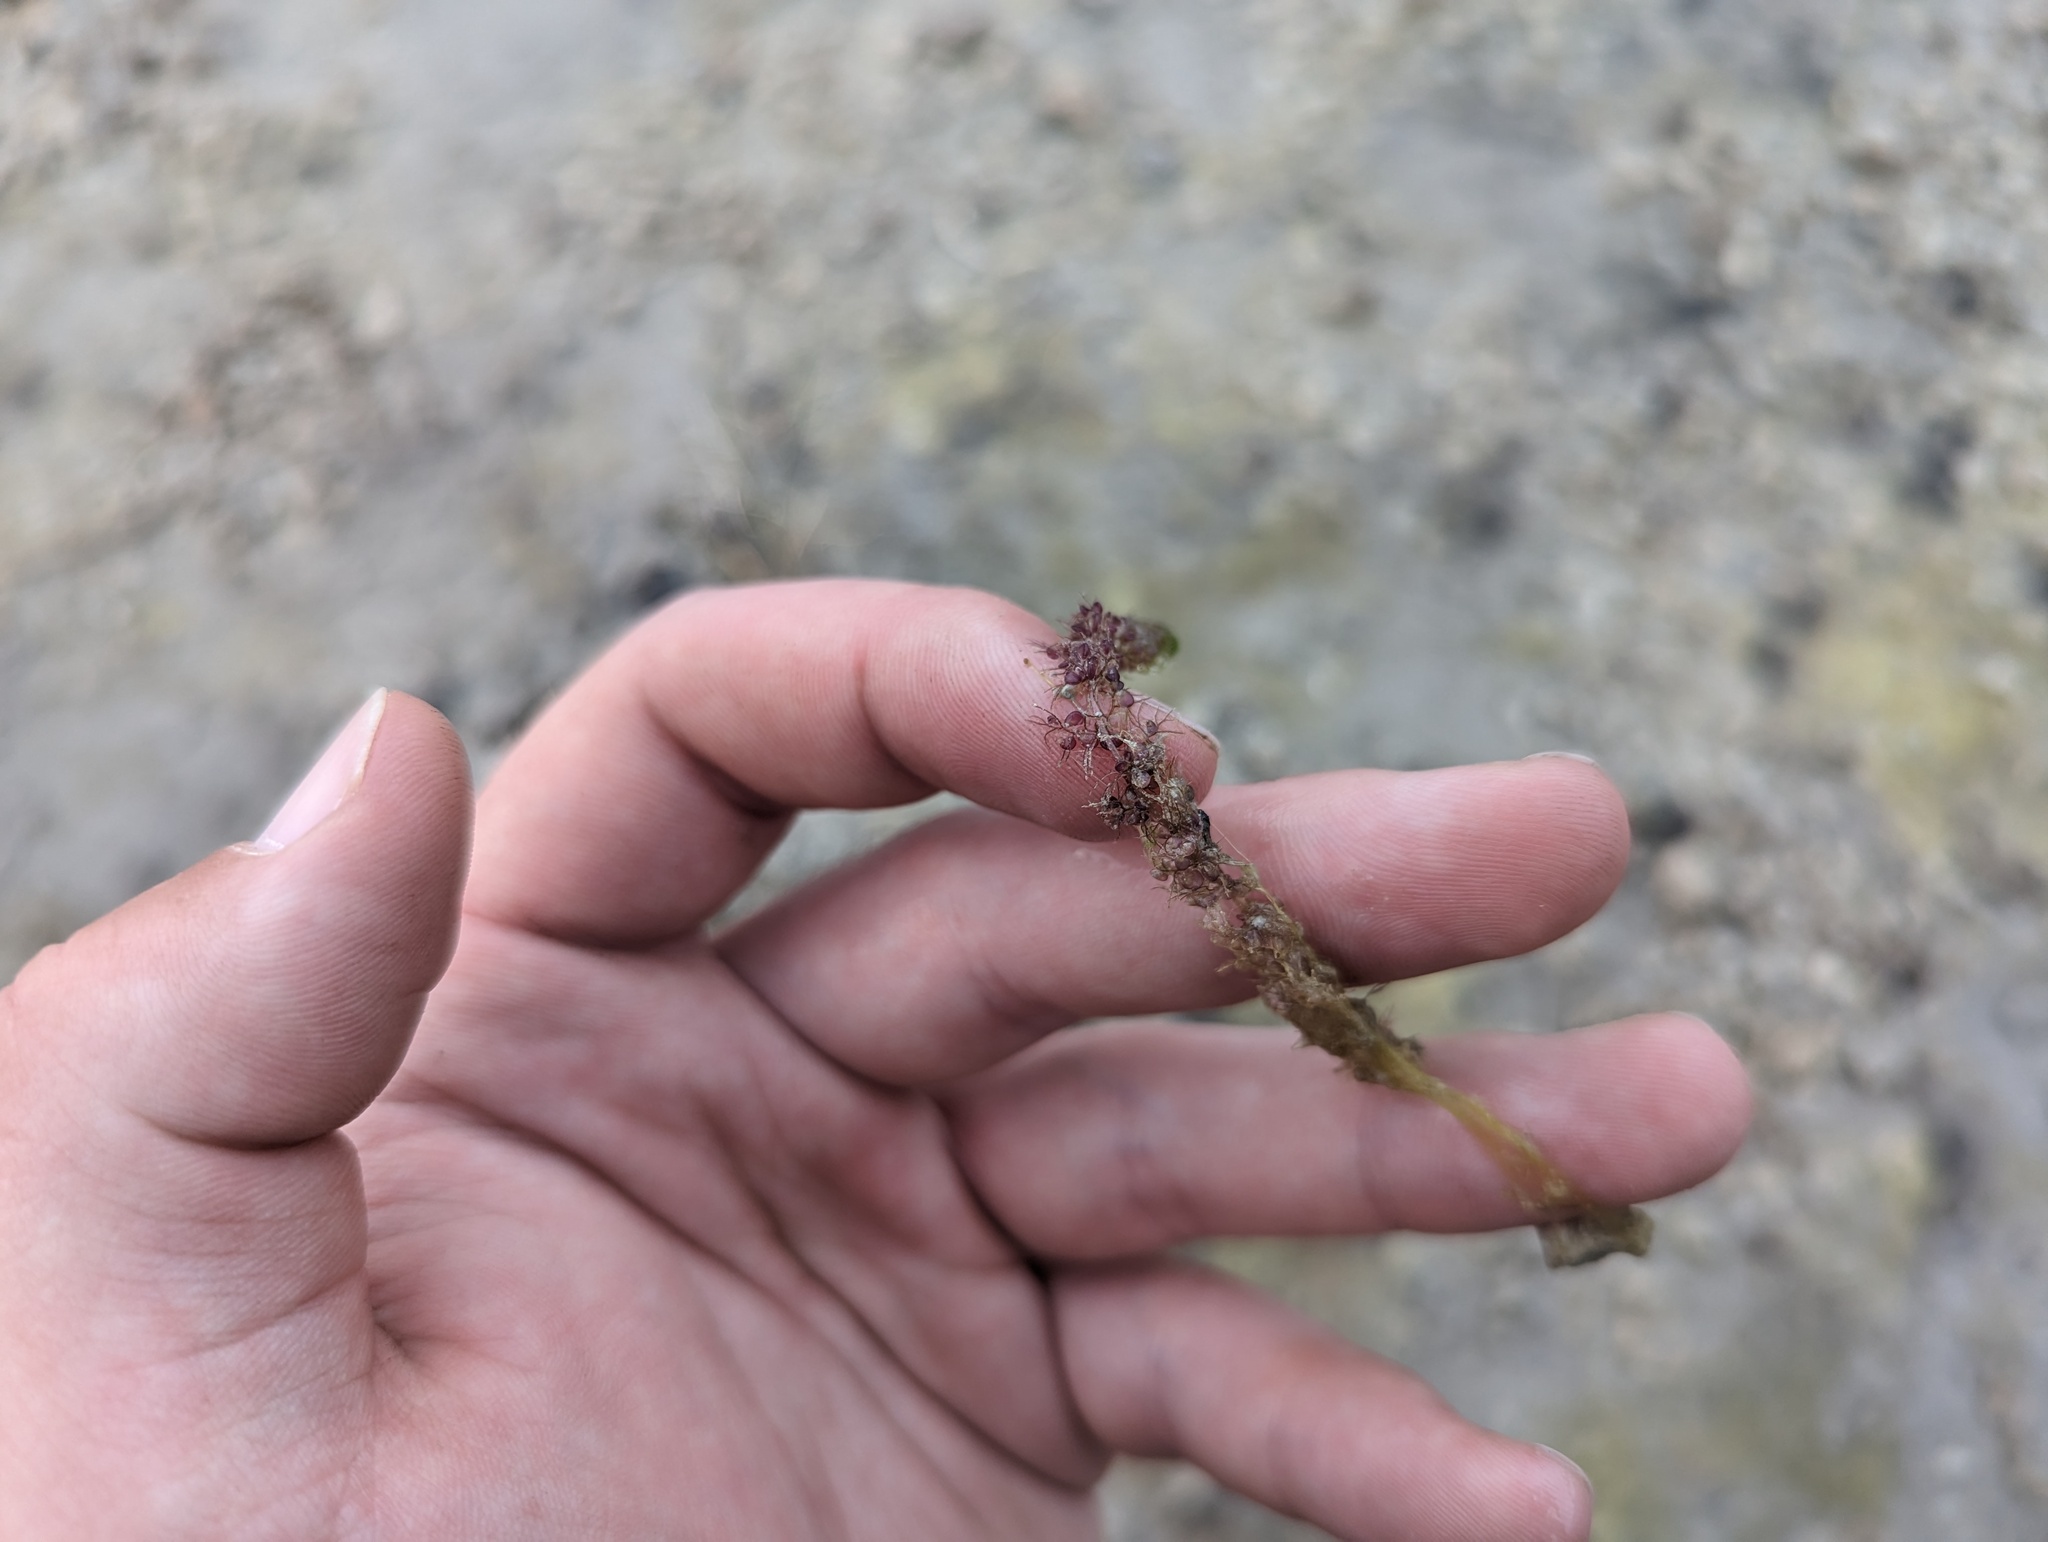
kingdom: Plantae
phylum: Tracheophyta
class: Magnoliopsida
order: Lamiales
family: Lentibulariaceae
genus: Utricularia
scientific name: Utricularia macrorhiza
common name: Common bladderwort
